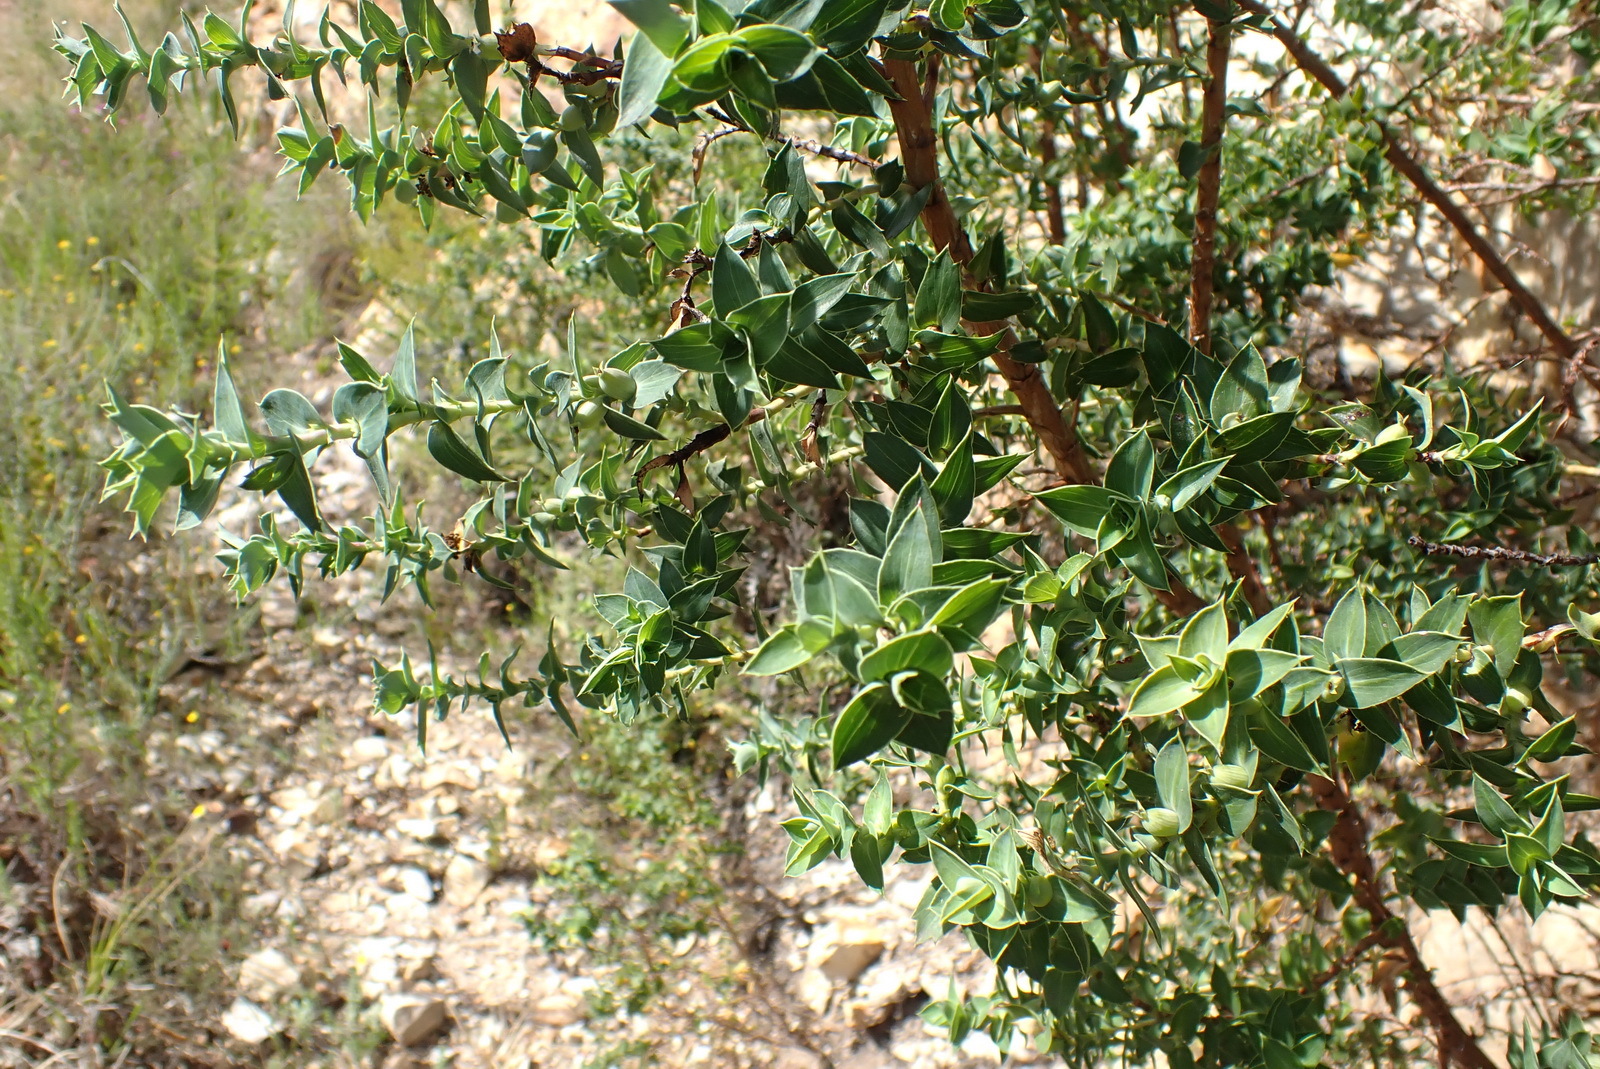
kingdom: Plantae
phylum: Tracheophyta
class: Magnoliopsida
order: Rosales
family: Rosaceae
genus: Cliffortia
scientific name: Cliffortia ilicifolia
